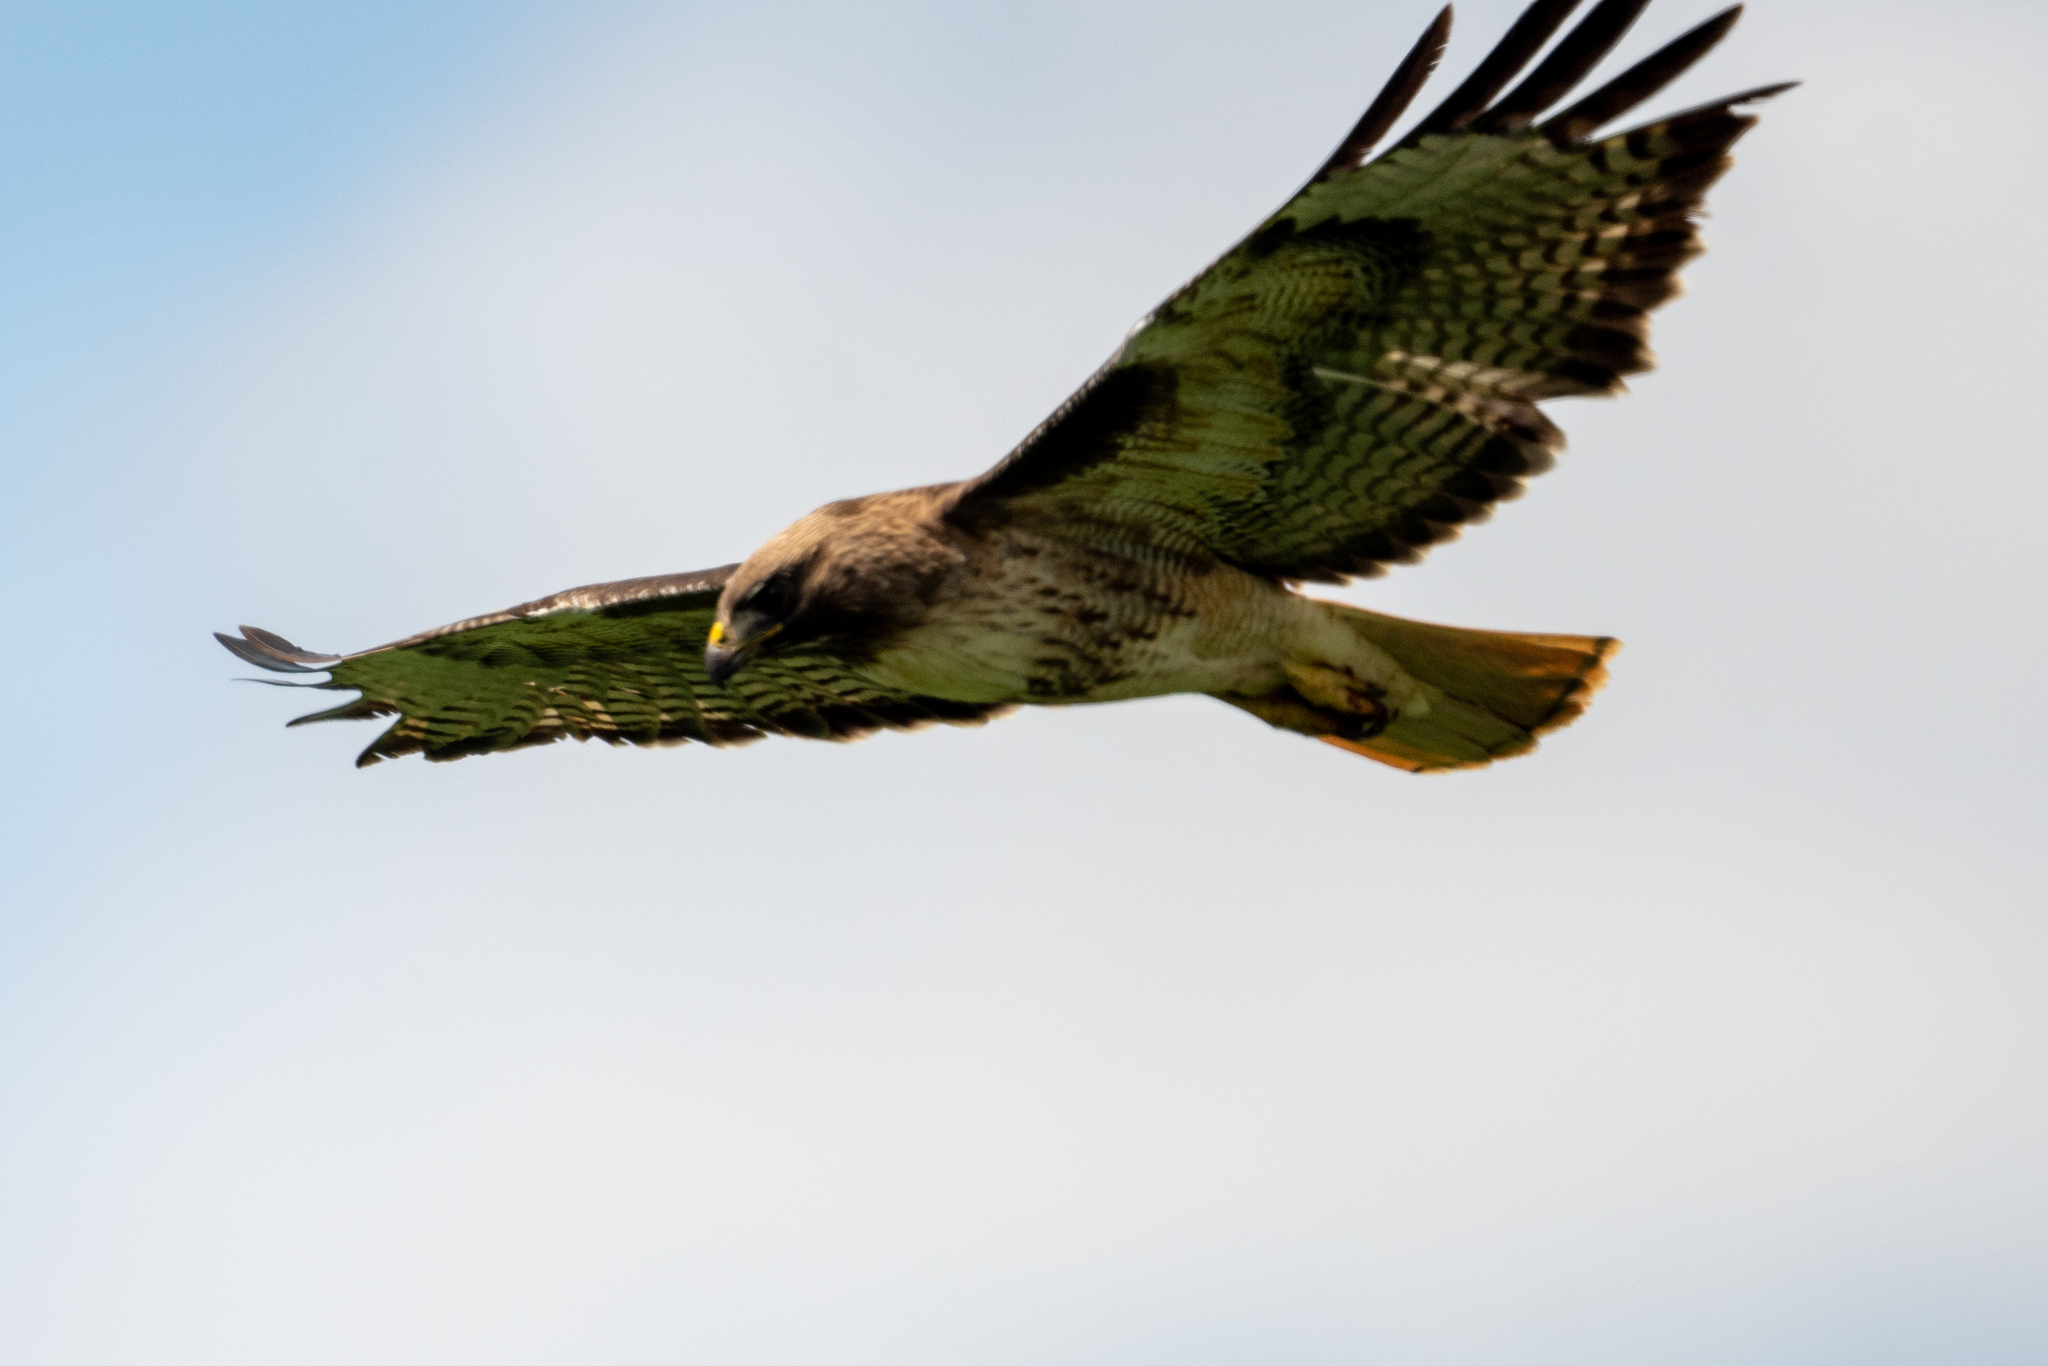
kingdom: Animalia
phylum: Chordata
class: Aves
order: Accipitriformes
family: Accipitridae
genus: Buteo
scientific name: Buteo jamaicensis
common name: Red-tailed hawk
